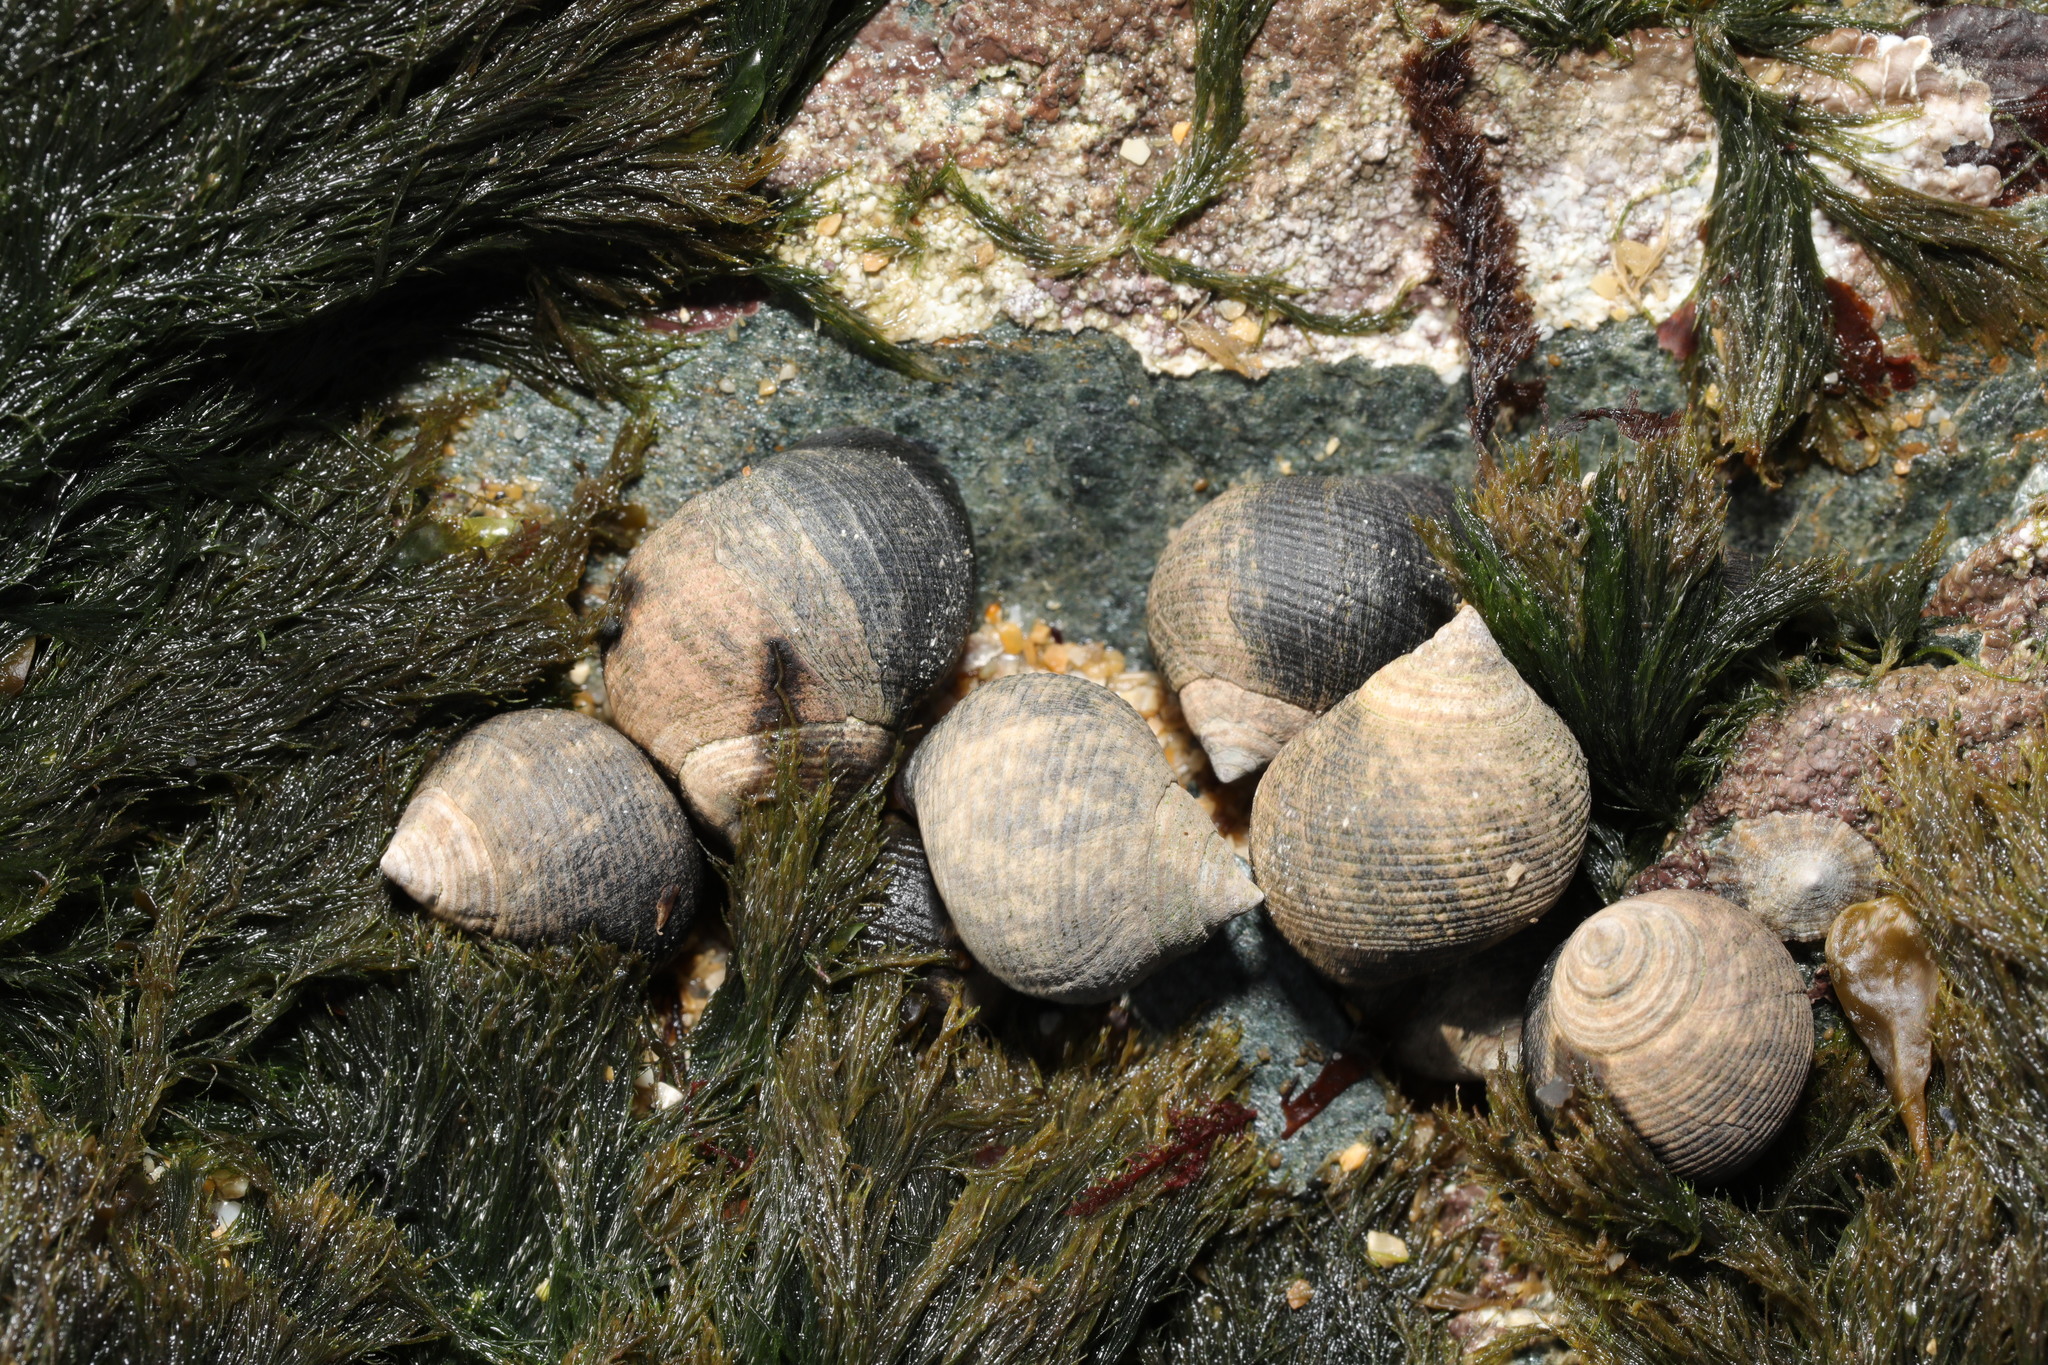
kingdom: Animalia
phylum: Mollusca
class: Gastropoda
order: Littorinimorpha
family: Littorinidae
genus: Littorina
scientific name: Littorina littorea
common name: Common periwinkle
